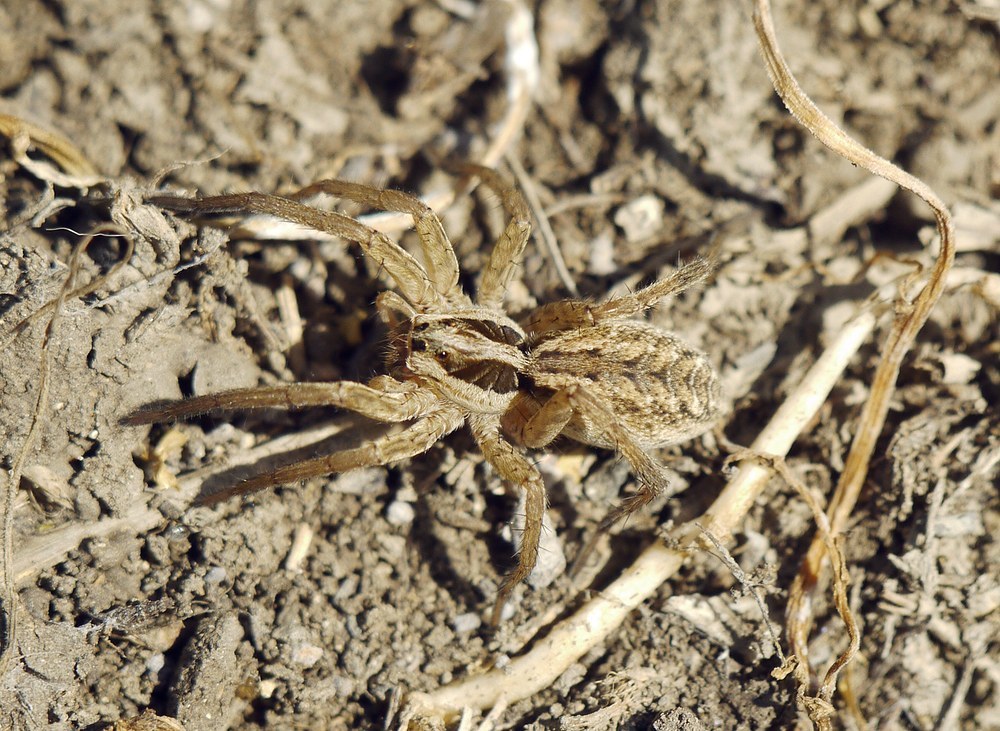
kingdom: Animalia
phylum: Arthropoda
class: Arachnida
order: Araneae
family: Lycosidae
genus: Hogna
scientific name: Hogna radiata
